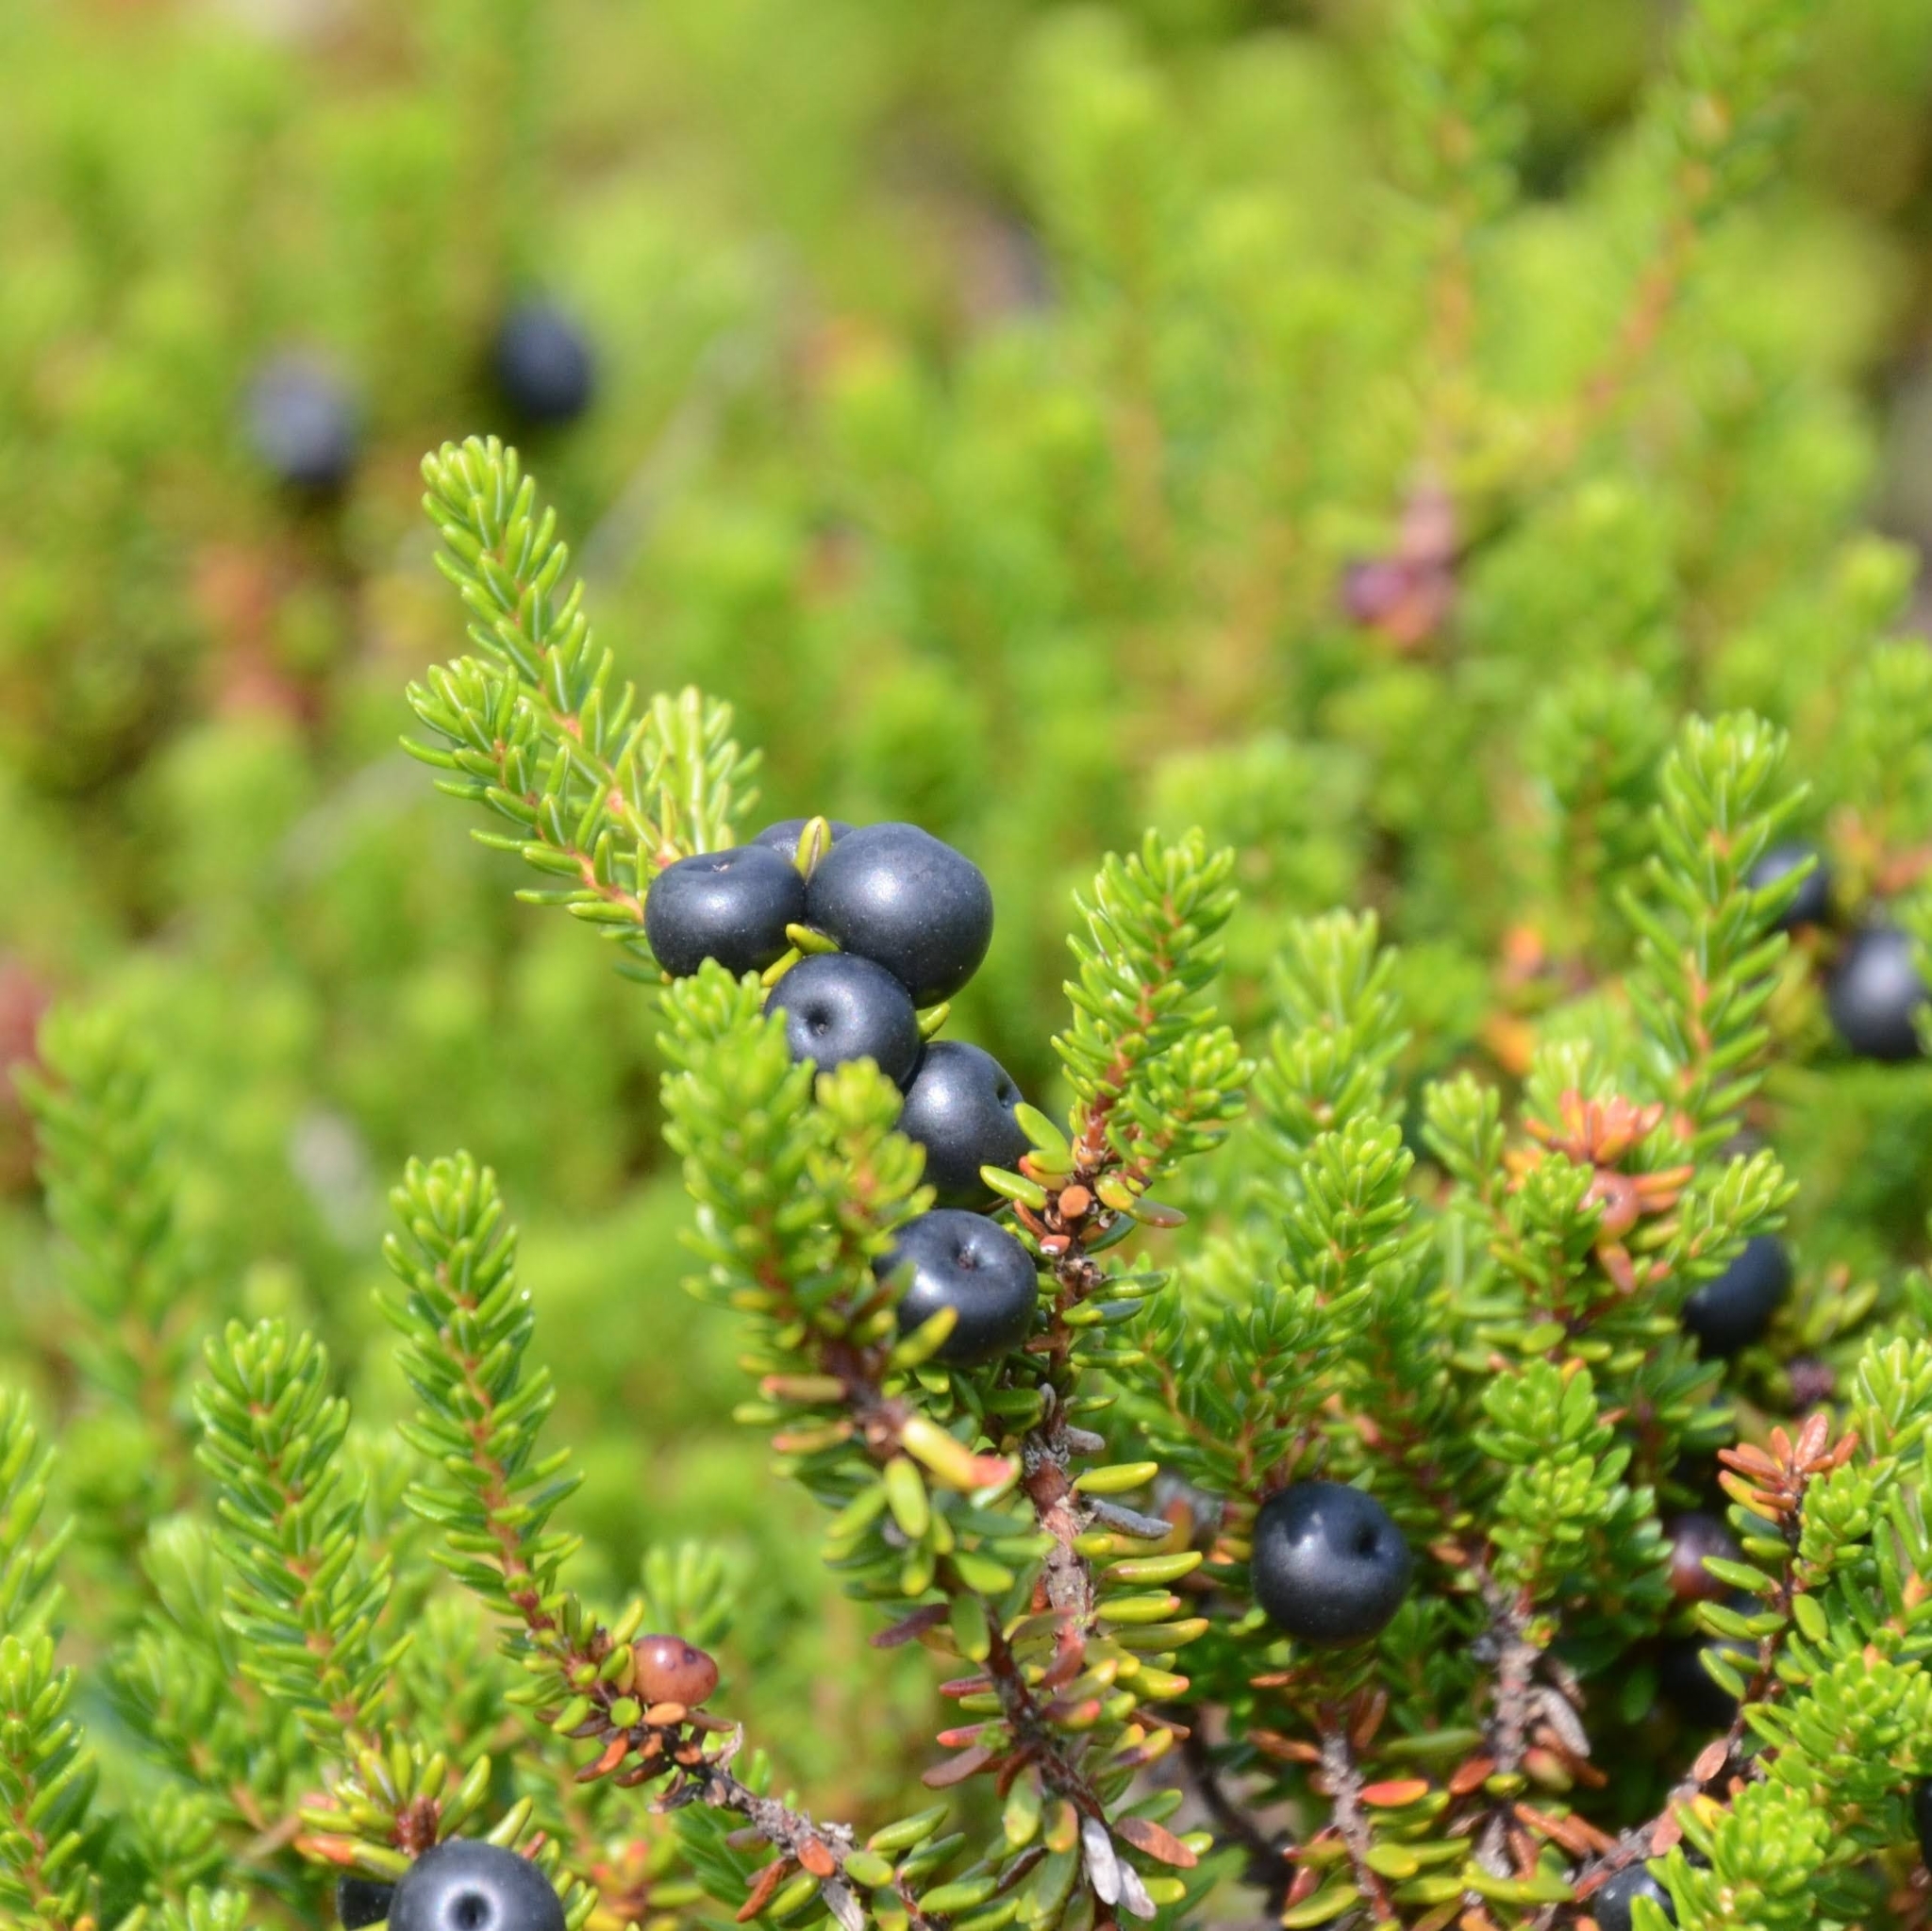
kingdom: Plantae
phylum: Tracheophyta
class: Magnoliopsida
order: Ericales
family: Ericaceae
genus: Empetrum
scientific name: Empetrum nigrum
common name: Black crowberry
